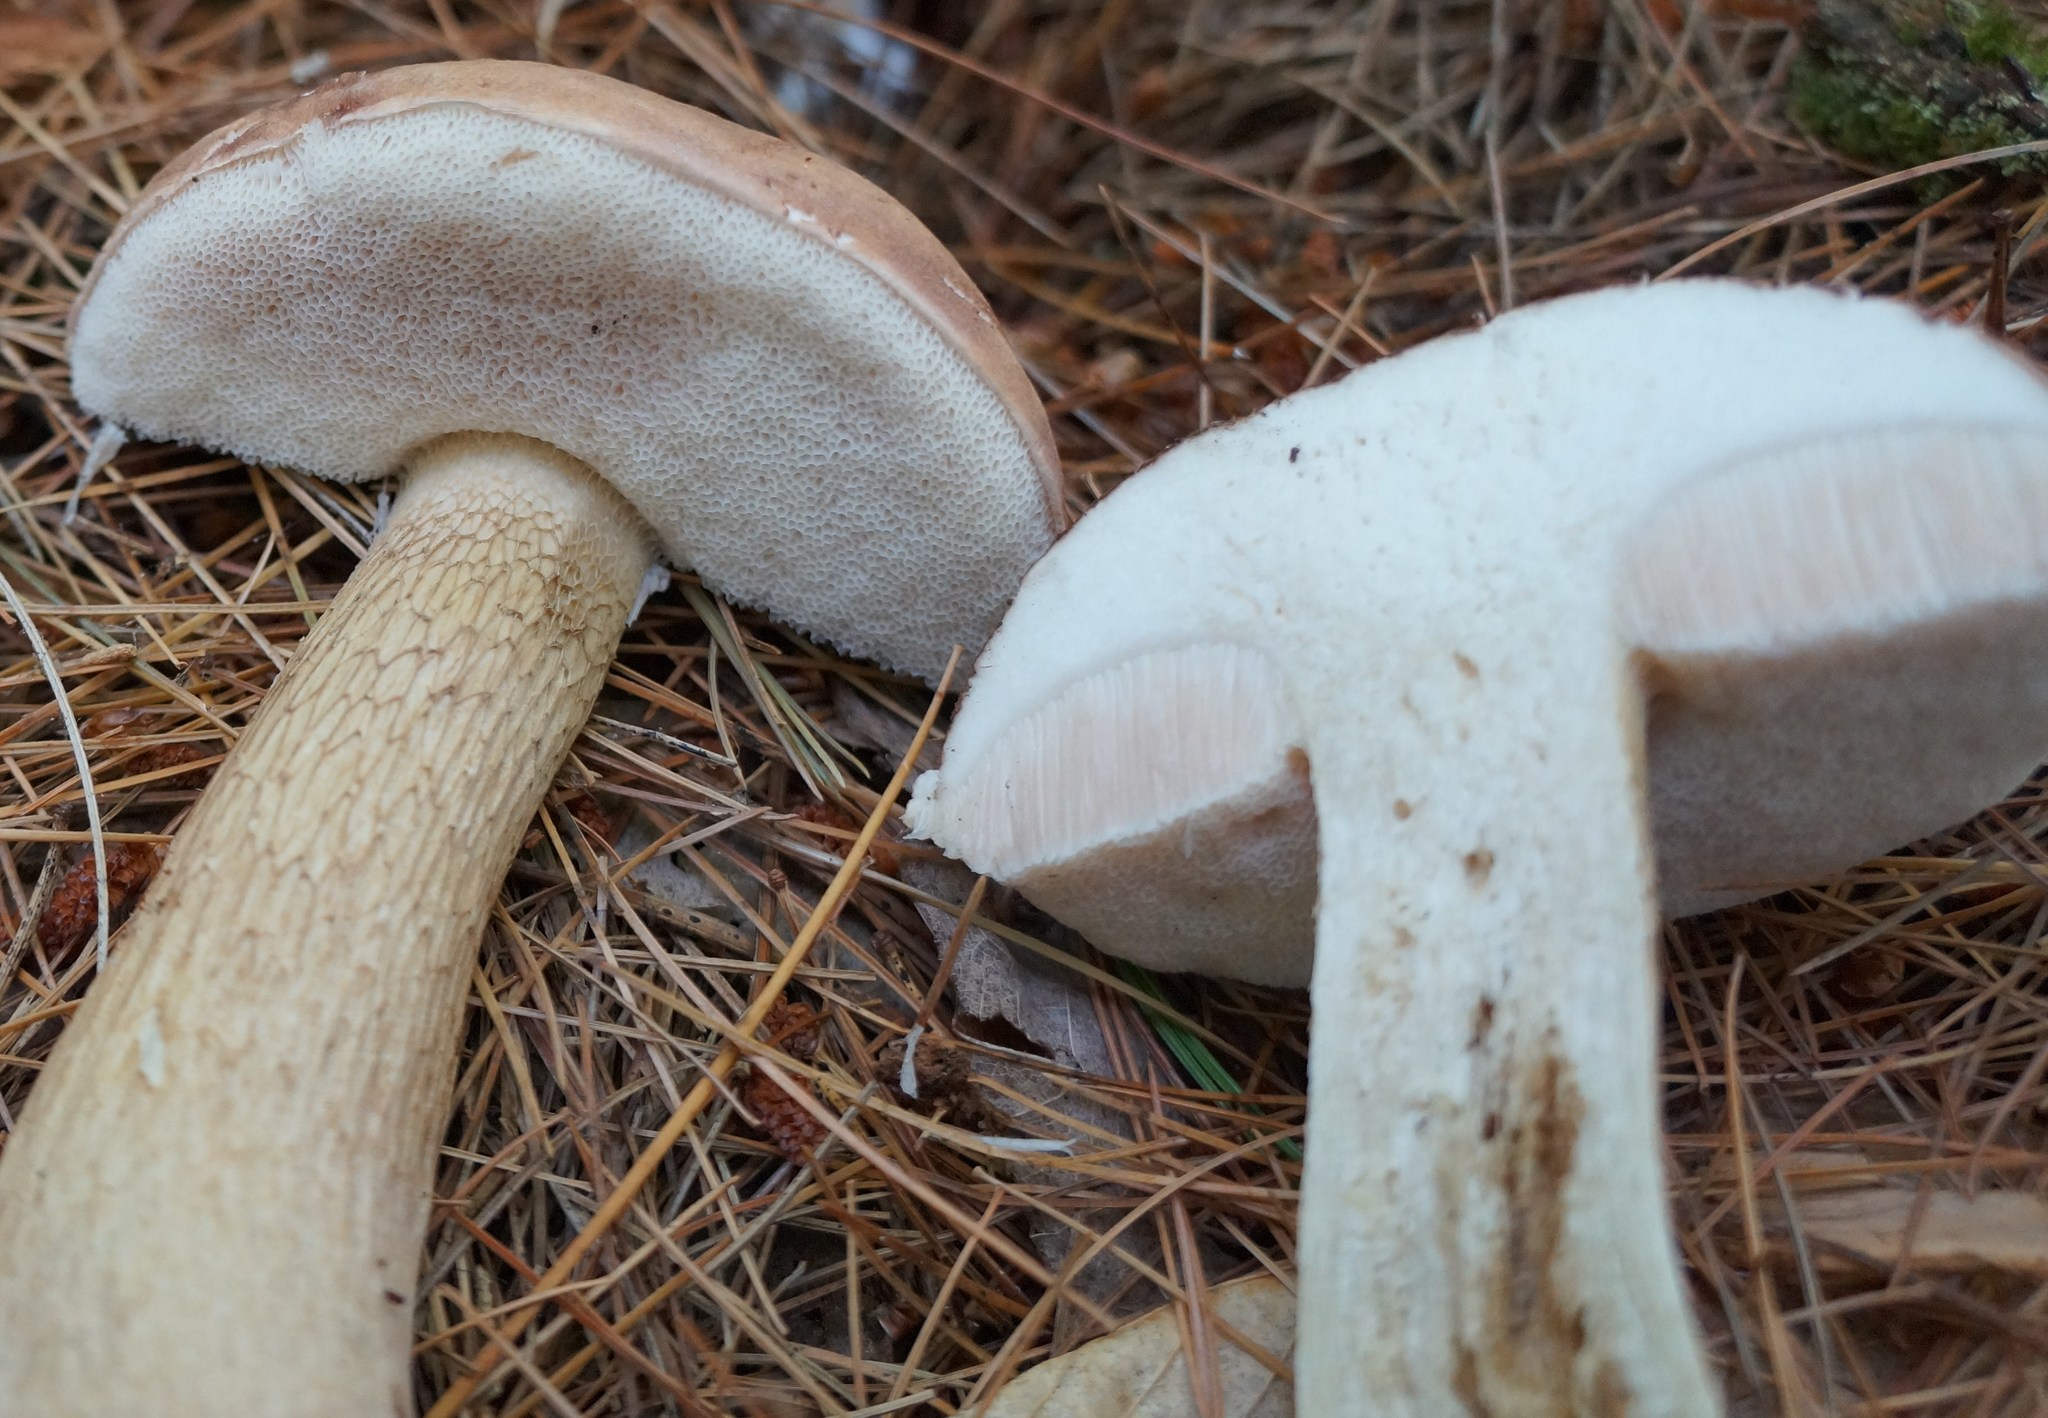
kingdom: Fungi
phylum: Basidiomycota
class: Agaricomycetes
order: Boletales
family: Boletaceae
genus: Tylopilus
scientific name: Tylopilus felleus
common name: Bitter bolete
